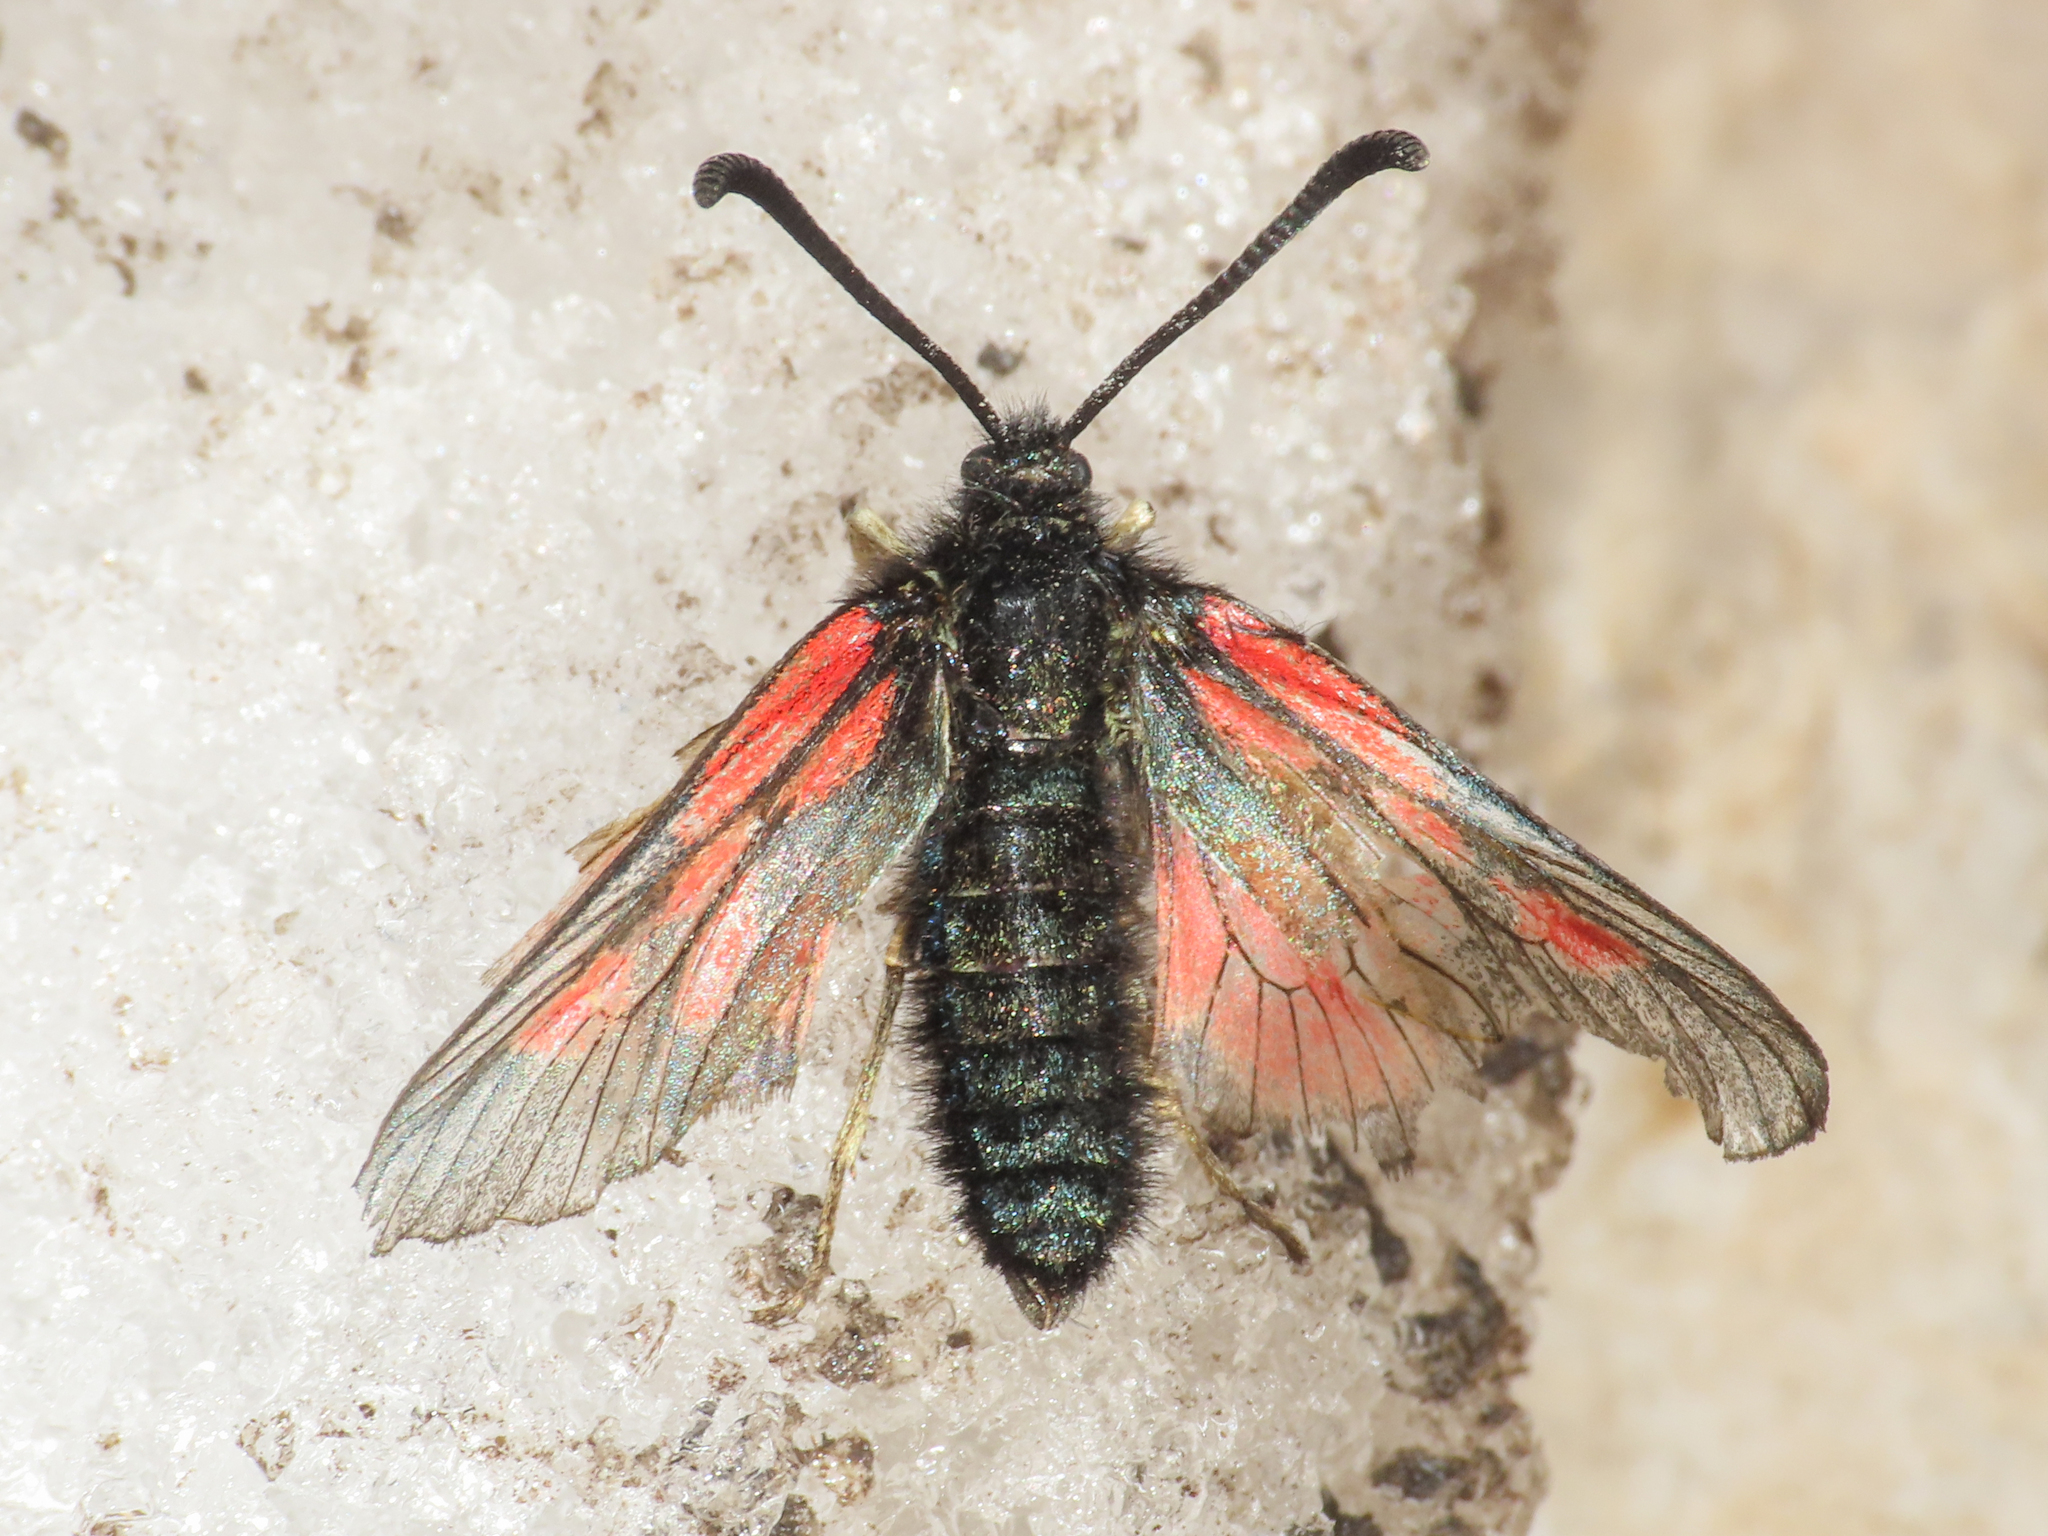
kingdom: Animalia
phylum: Arthropoda
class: Insecta
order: Lepidoptera
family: Zygaenidae
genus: Zygaena
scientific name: Zygaena exulans
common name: Scotch burnet
